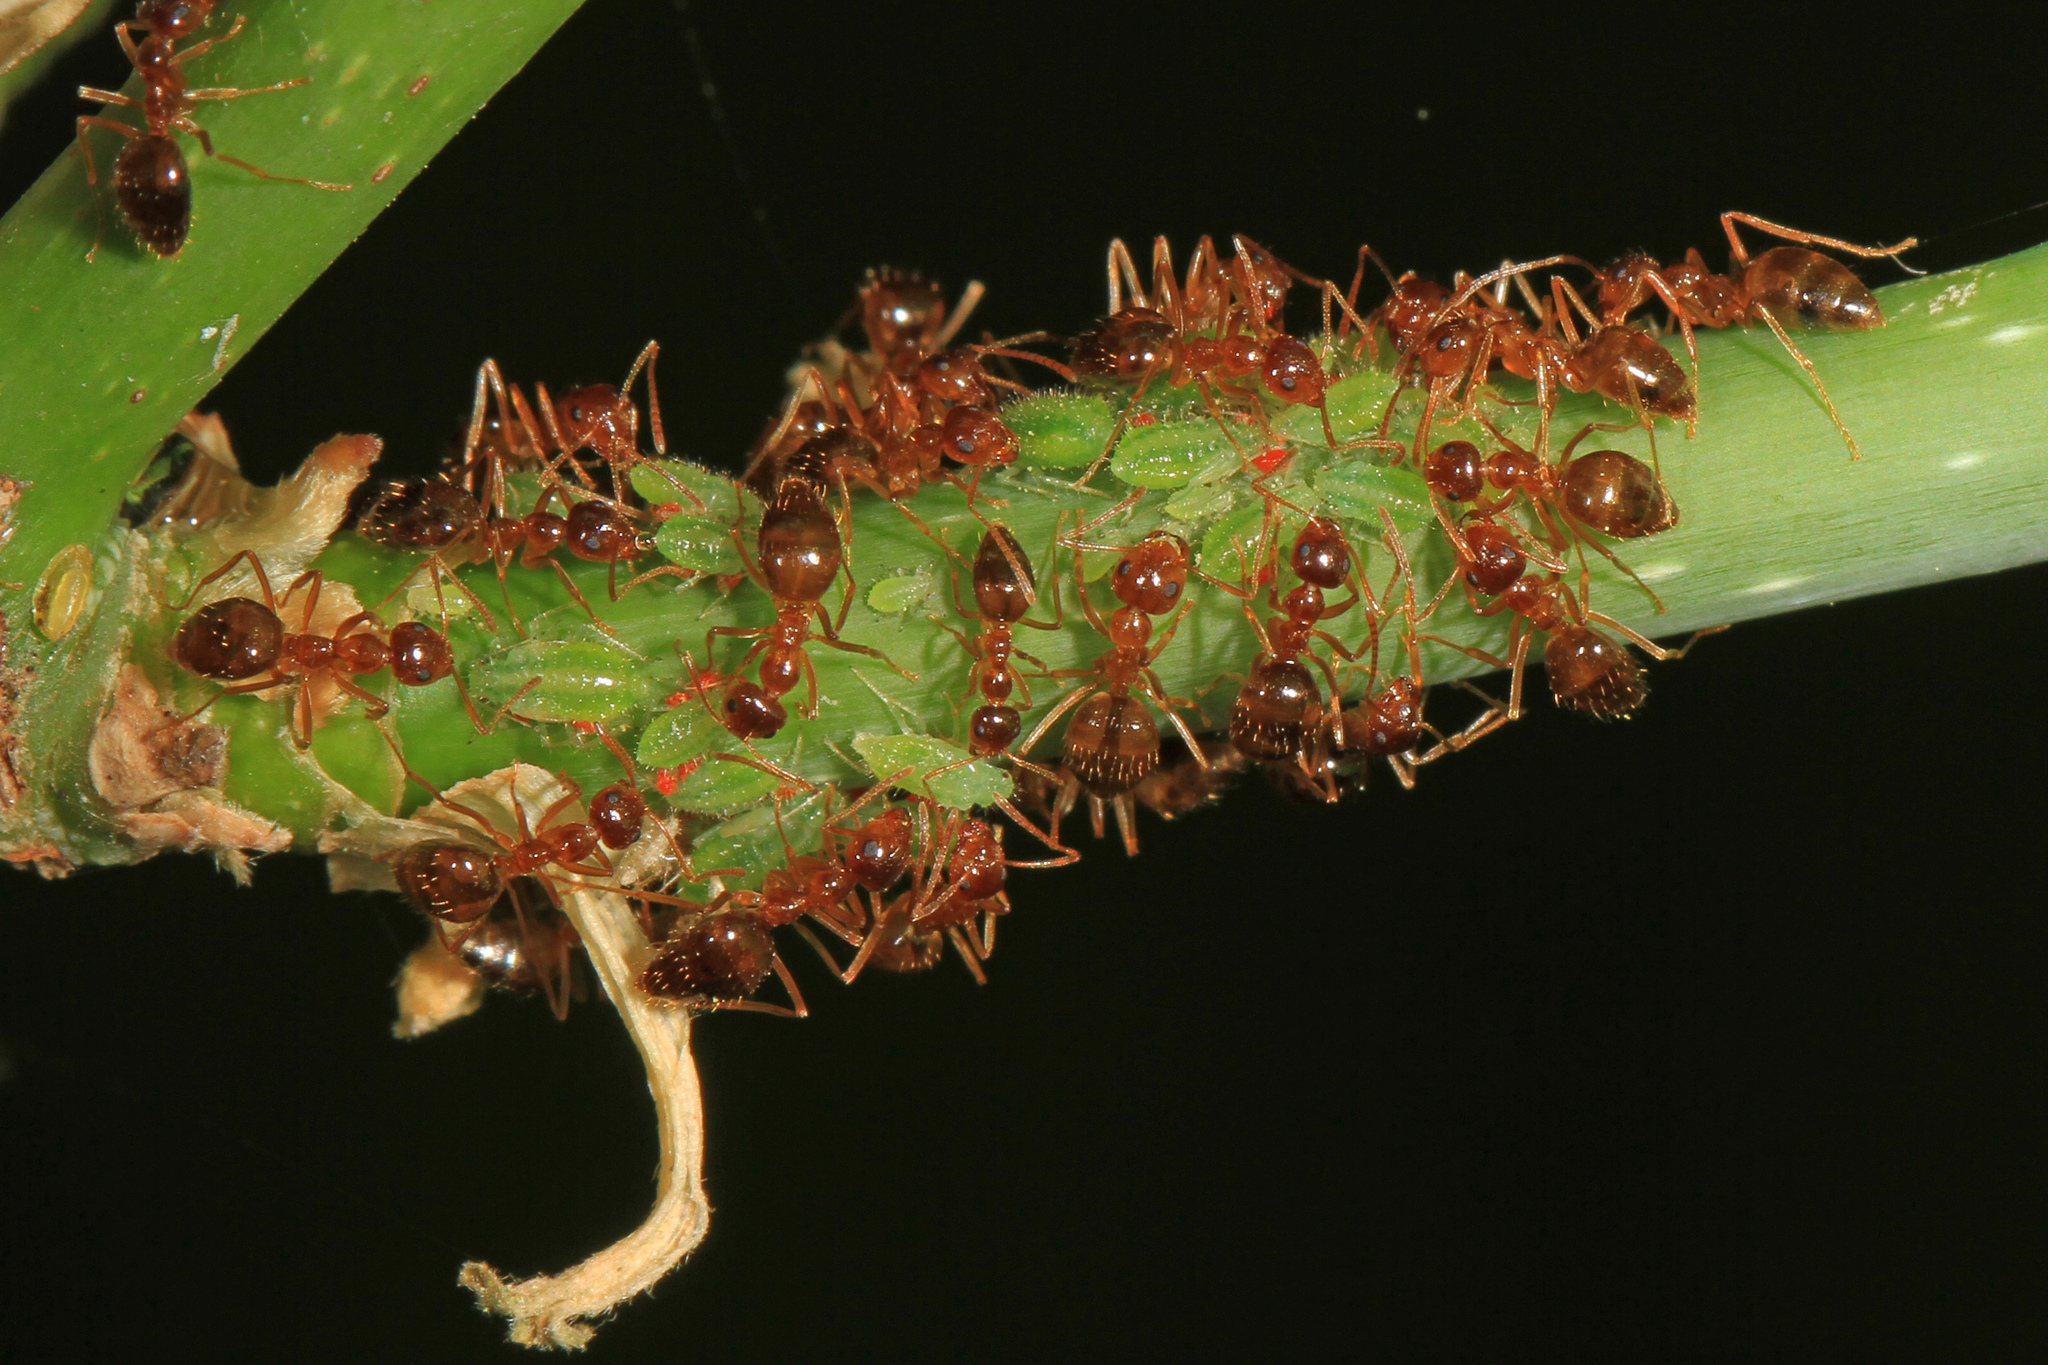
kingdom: Animalia
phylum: Arthropoda
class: Insecta
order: Hymenoptera
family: Formicidae
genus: Prenolepis
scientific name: Prenolepis imparis
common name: Small honey ant
